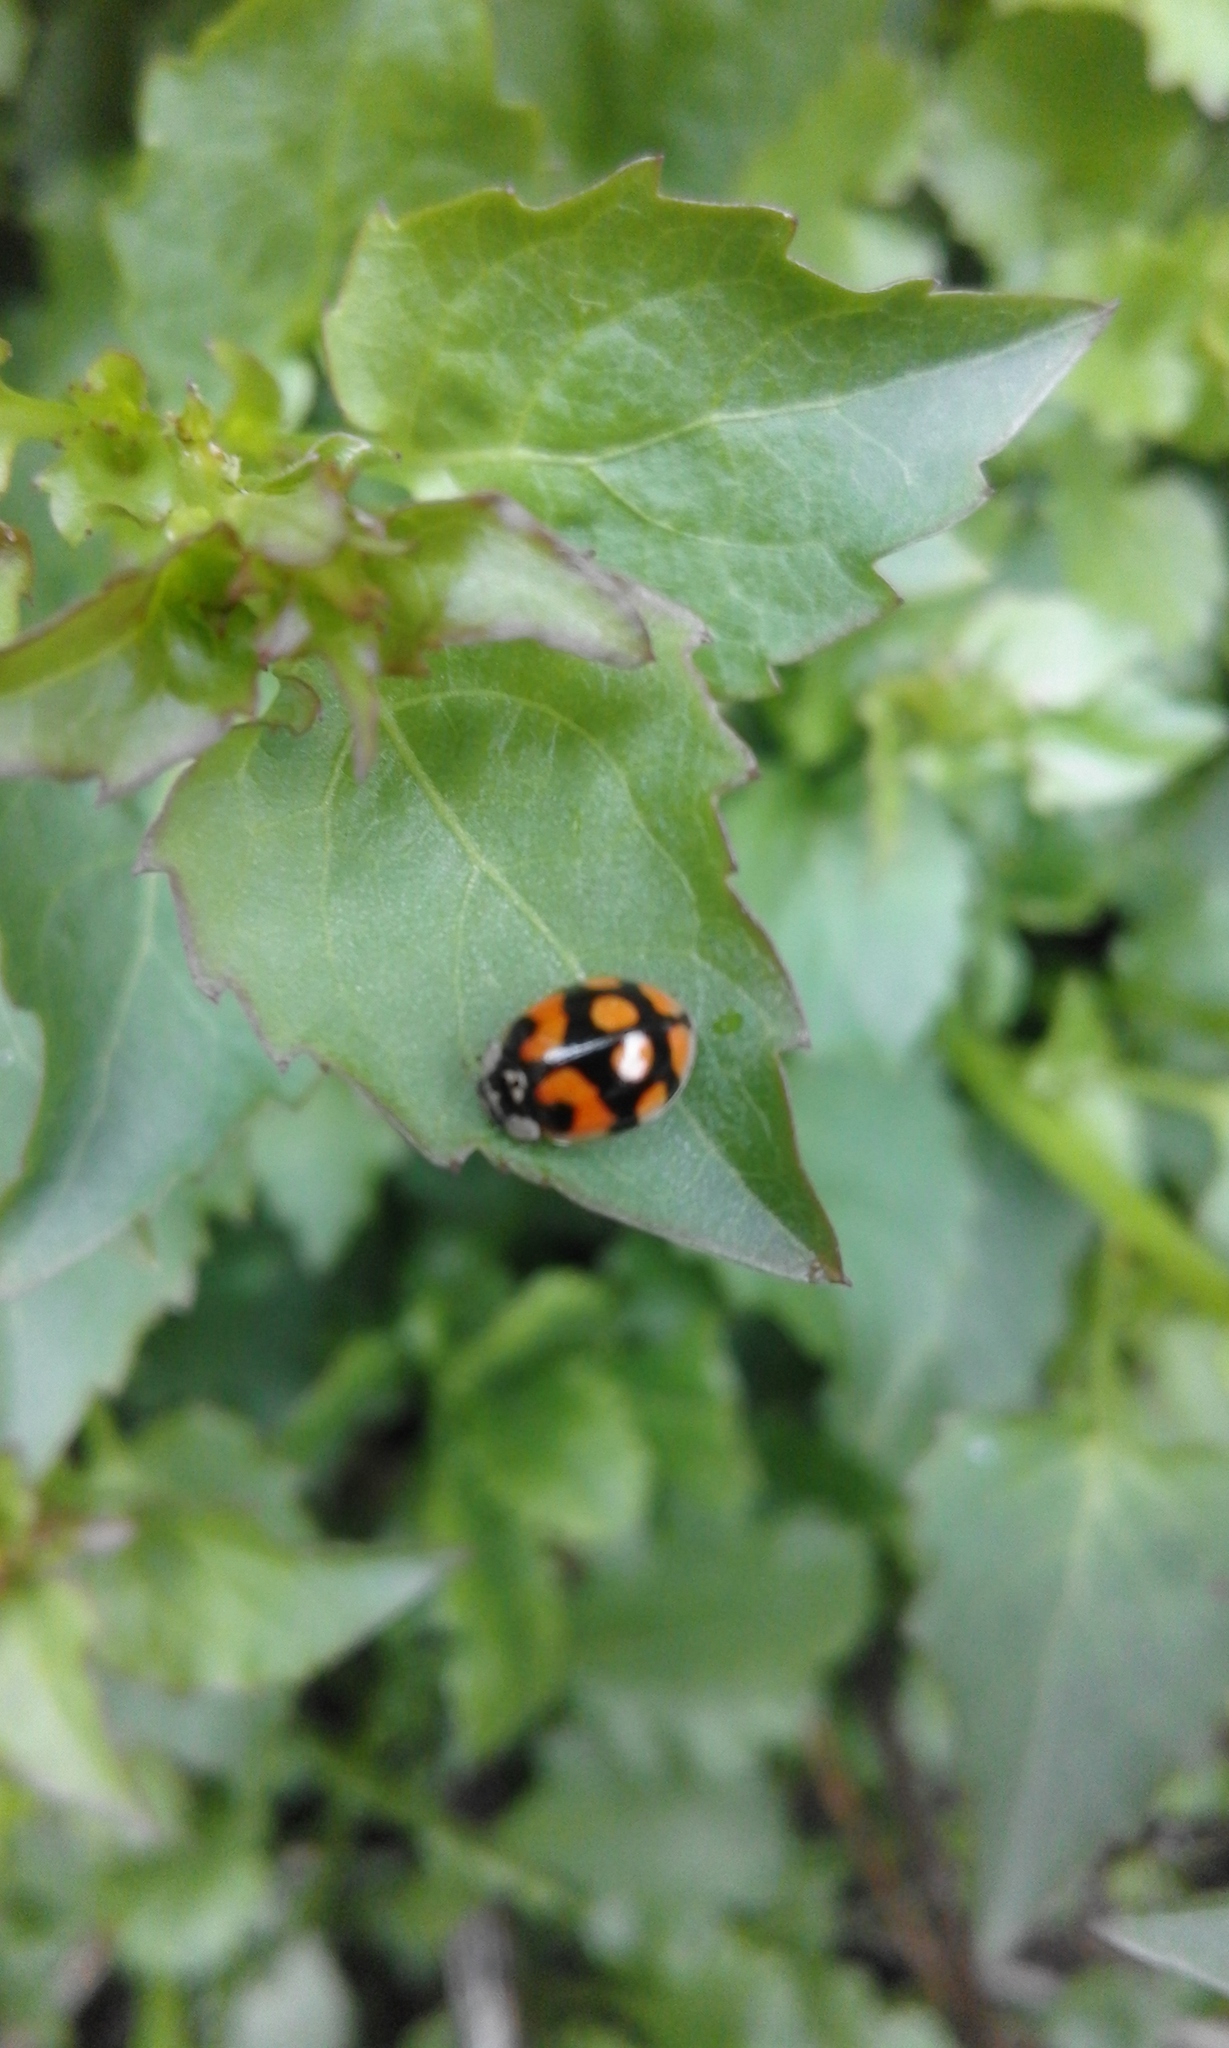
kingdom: Animalia
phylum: Arthropoda
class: Insecta
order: Coleoptera
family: Coccinellidae
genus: Adalia
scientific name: Adalia decempunctata
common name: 10-spot ladybird
